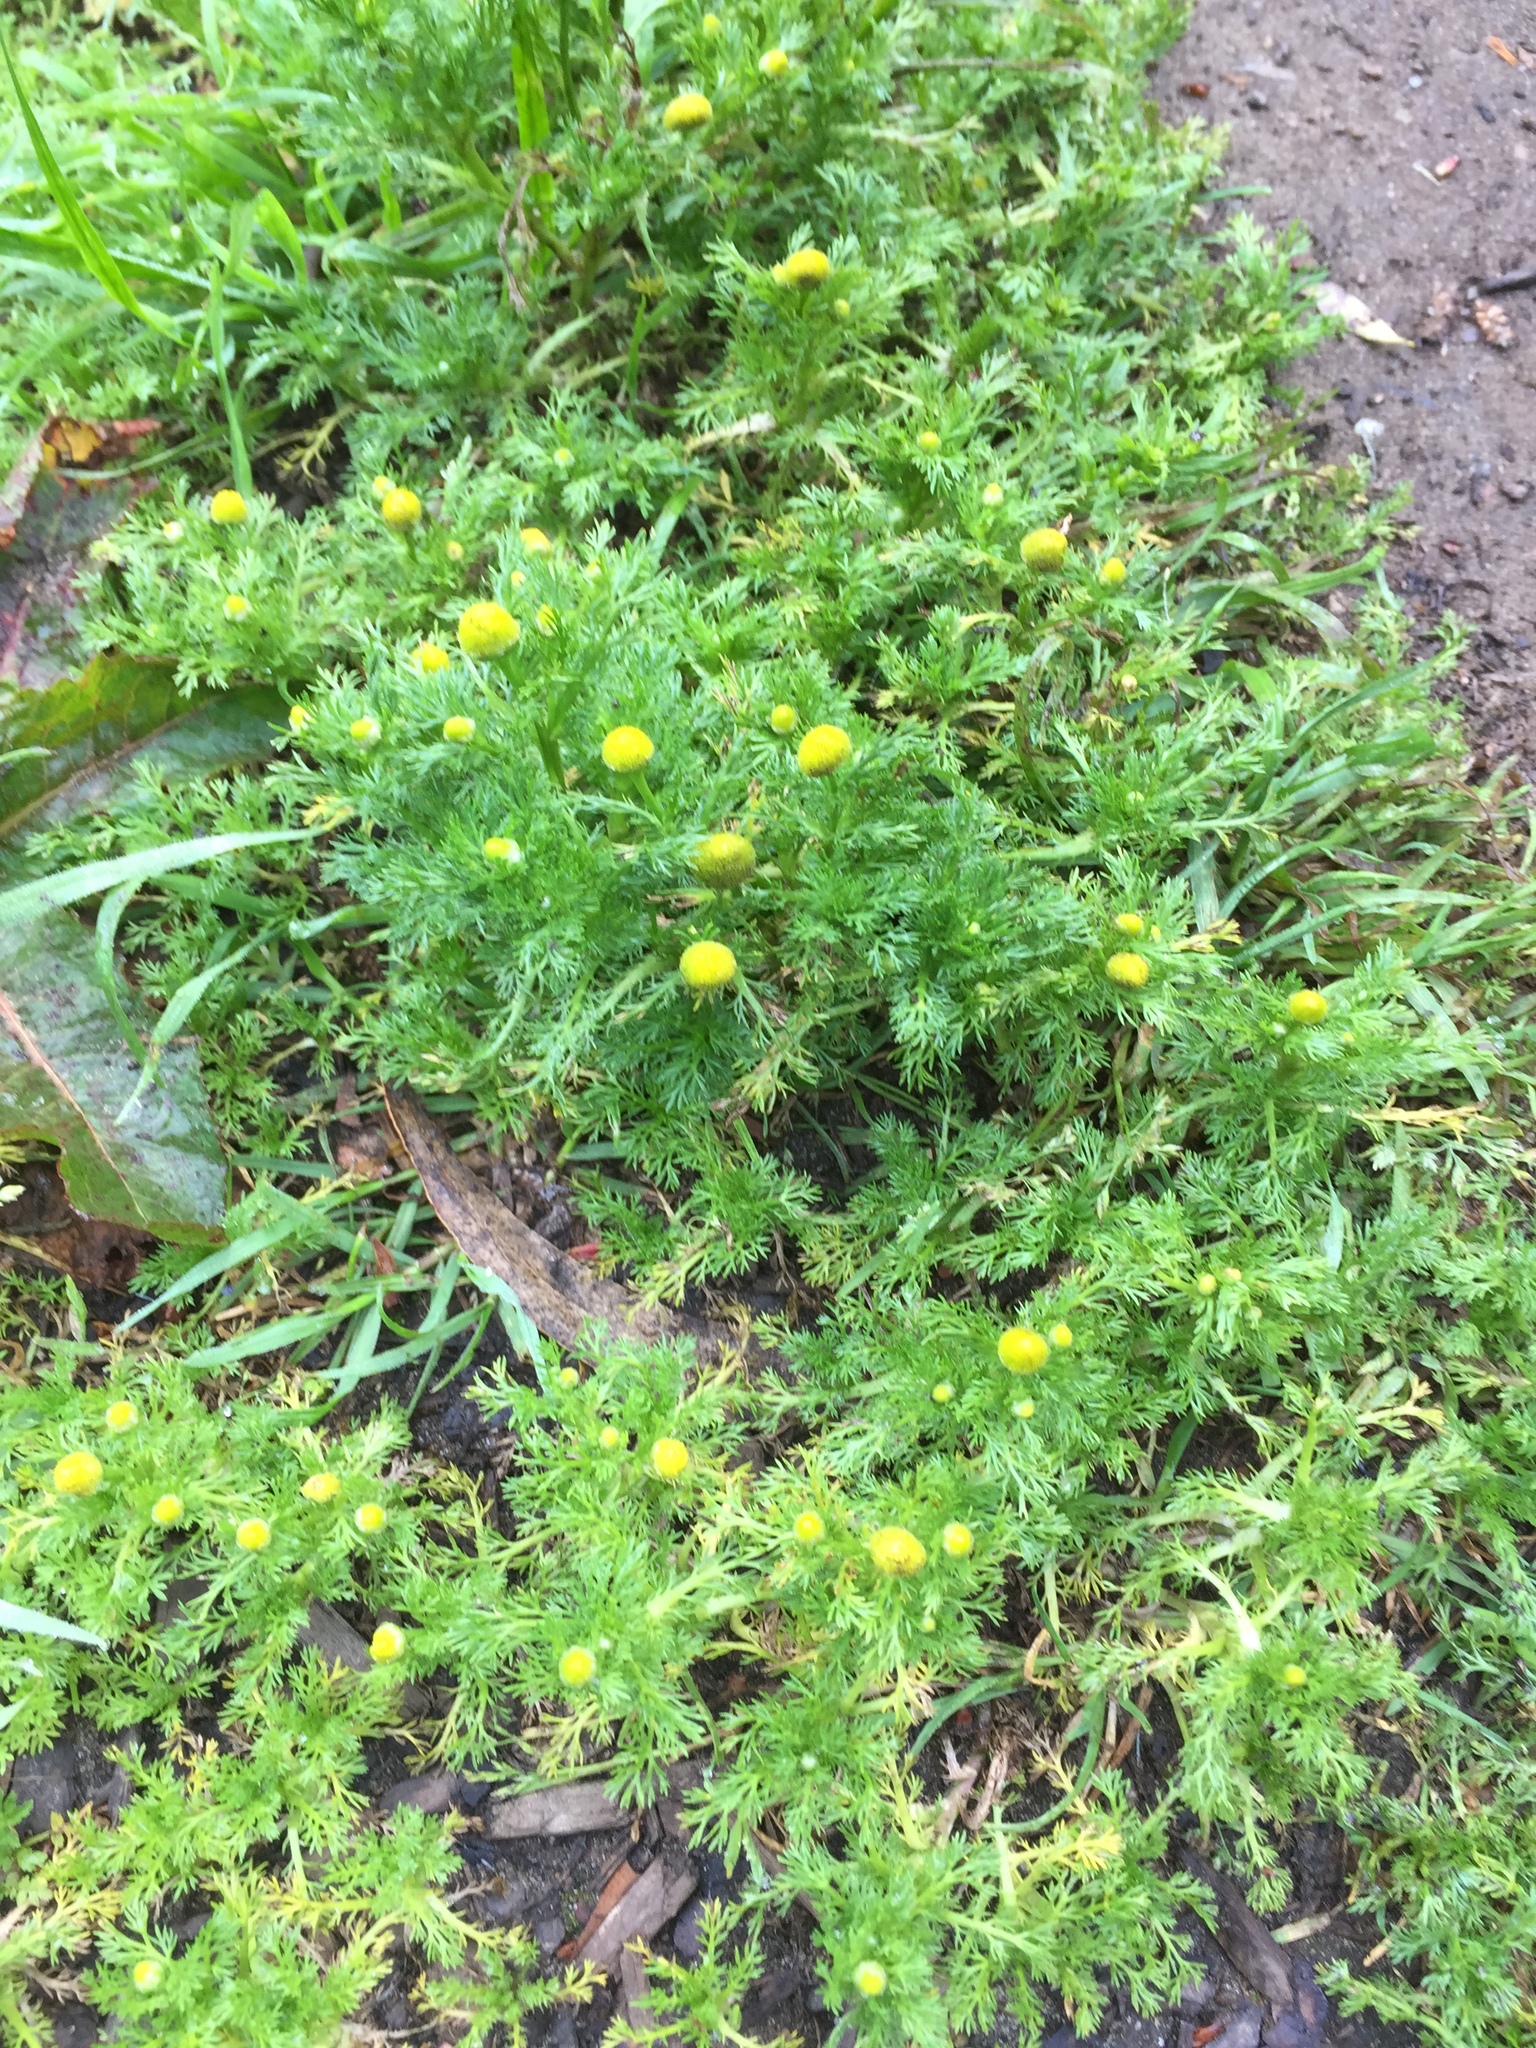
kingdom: Plantae
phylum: Tracheophyta
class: Magnoliopsida
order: Asterales
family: Asteraceae
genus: Matricaria
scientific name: Matricaria discoidea
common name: Disc mayweed
